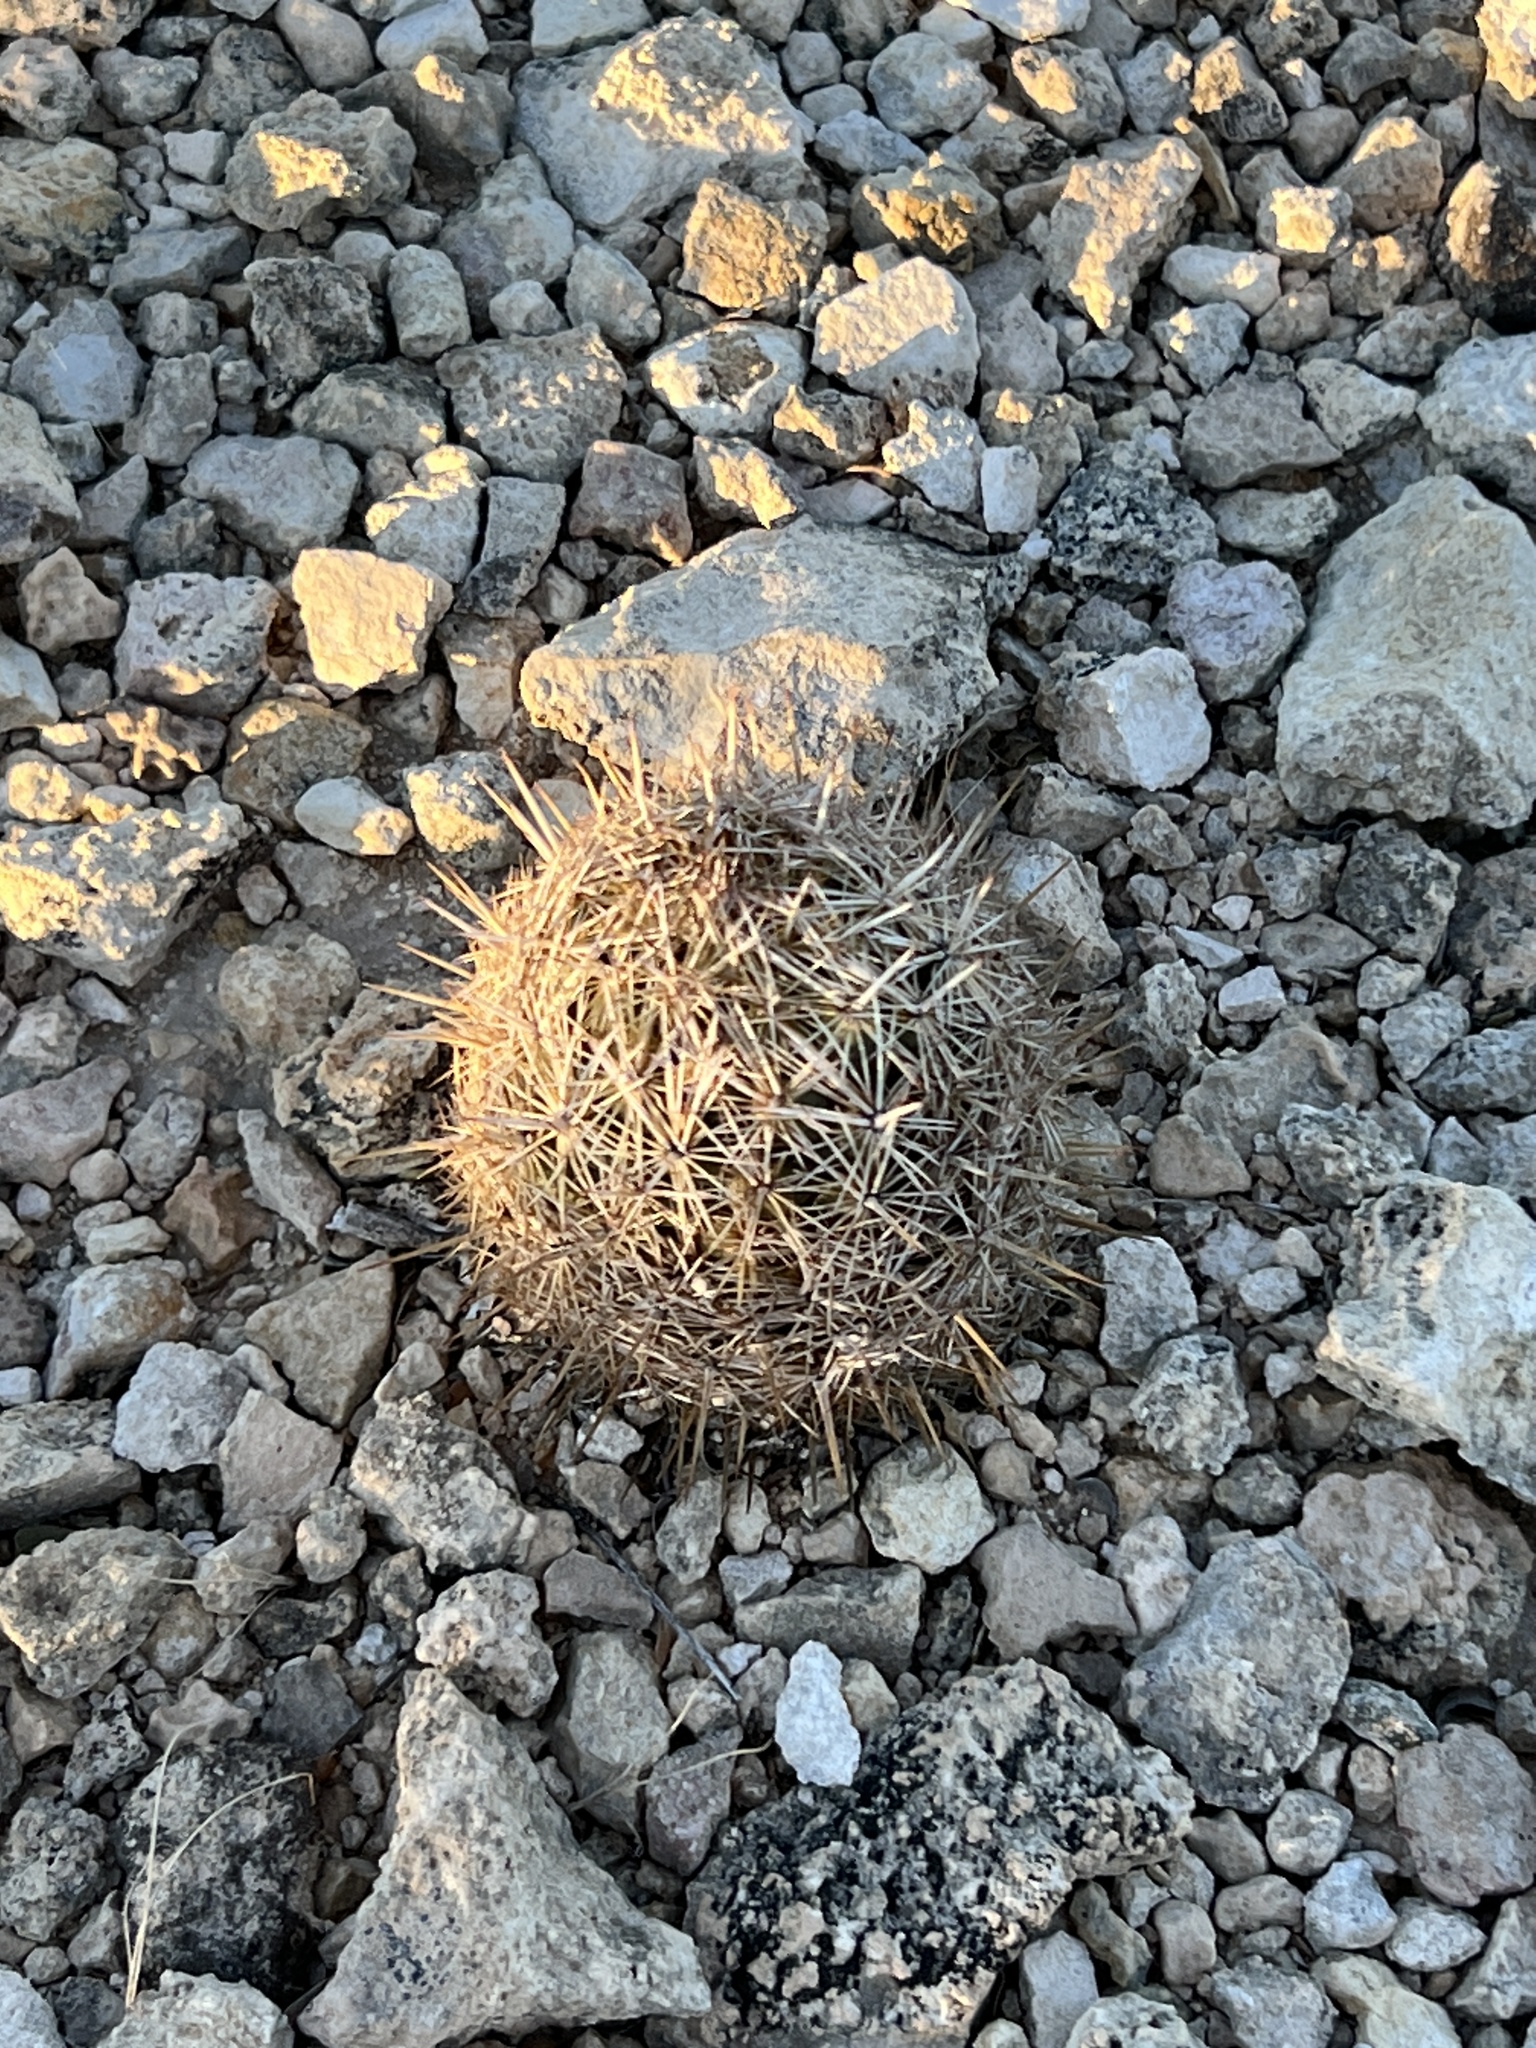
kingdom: Plantae
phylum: Tracheophyta
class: Magnoliopsida
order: Caryophyllales
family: Cactaceae
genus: Coryphantha
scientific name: Coryphantha echinus
